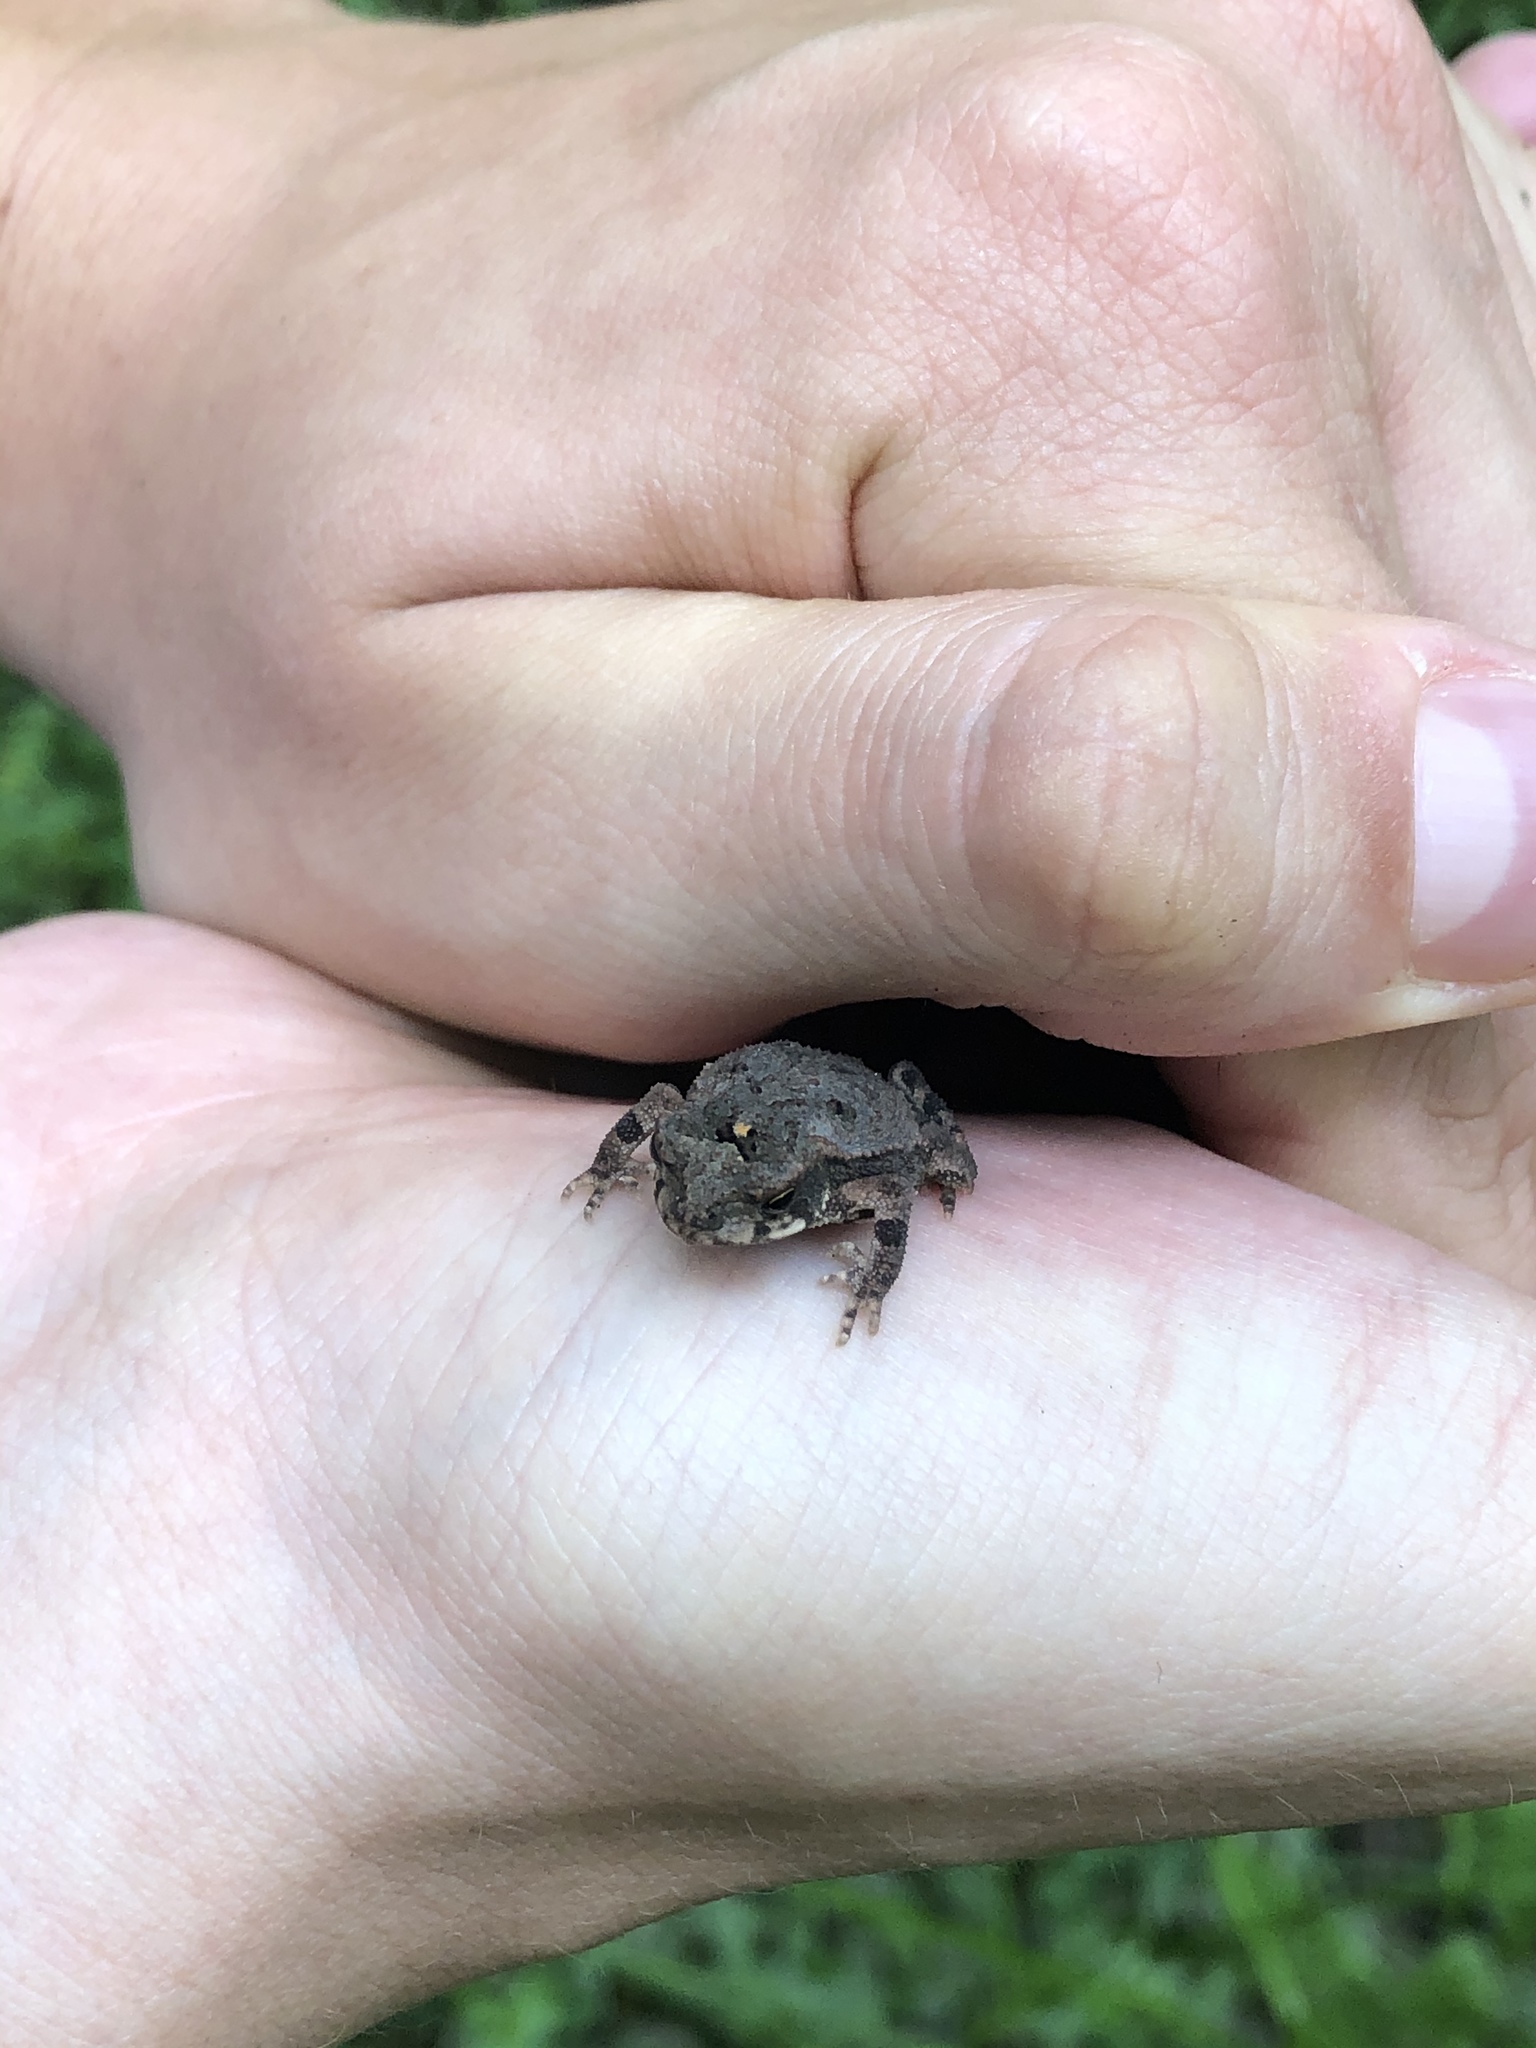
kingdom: Animalia
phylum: Chordata
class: Amphibia
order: Anura
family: Bufonidae
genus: Incilius
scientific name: Incilius nebulifer
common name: Gulf coast toad
